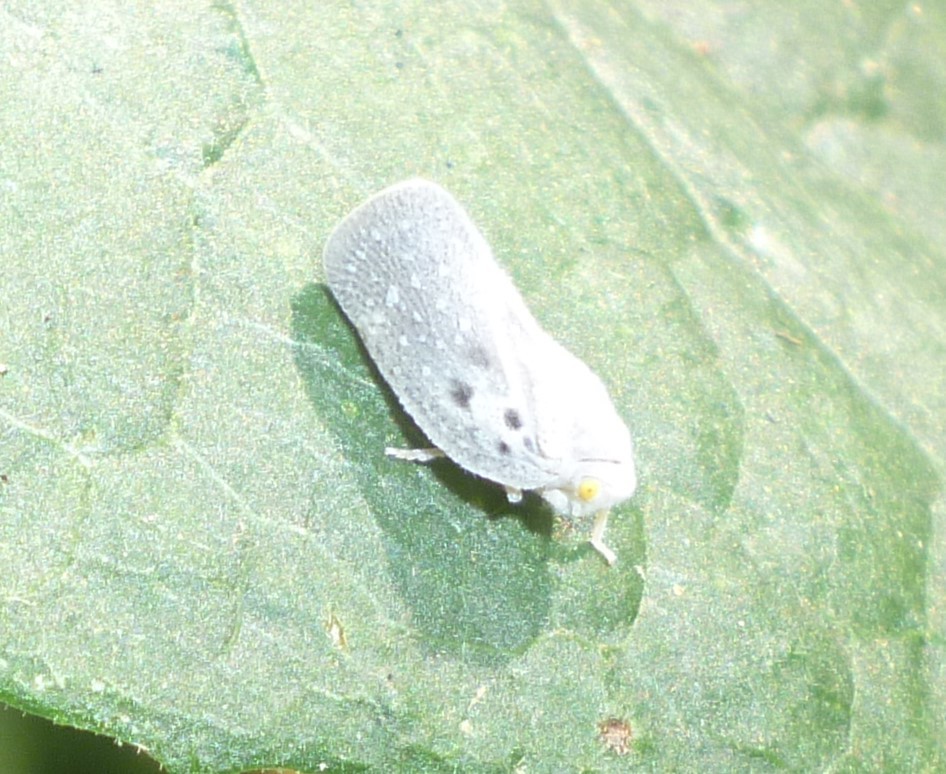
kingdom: Animalia
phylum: Arthropoda
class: Insecta
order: Hemiptera
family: Flatidae
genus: Metcalfa
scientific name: Metcalfa pruinosa
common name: Citrus flatid planthopper
